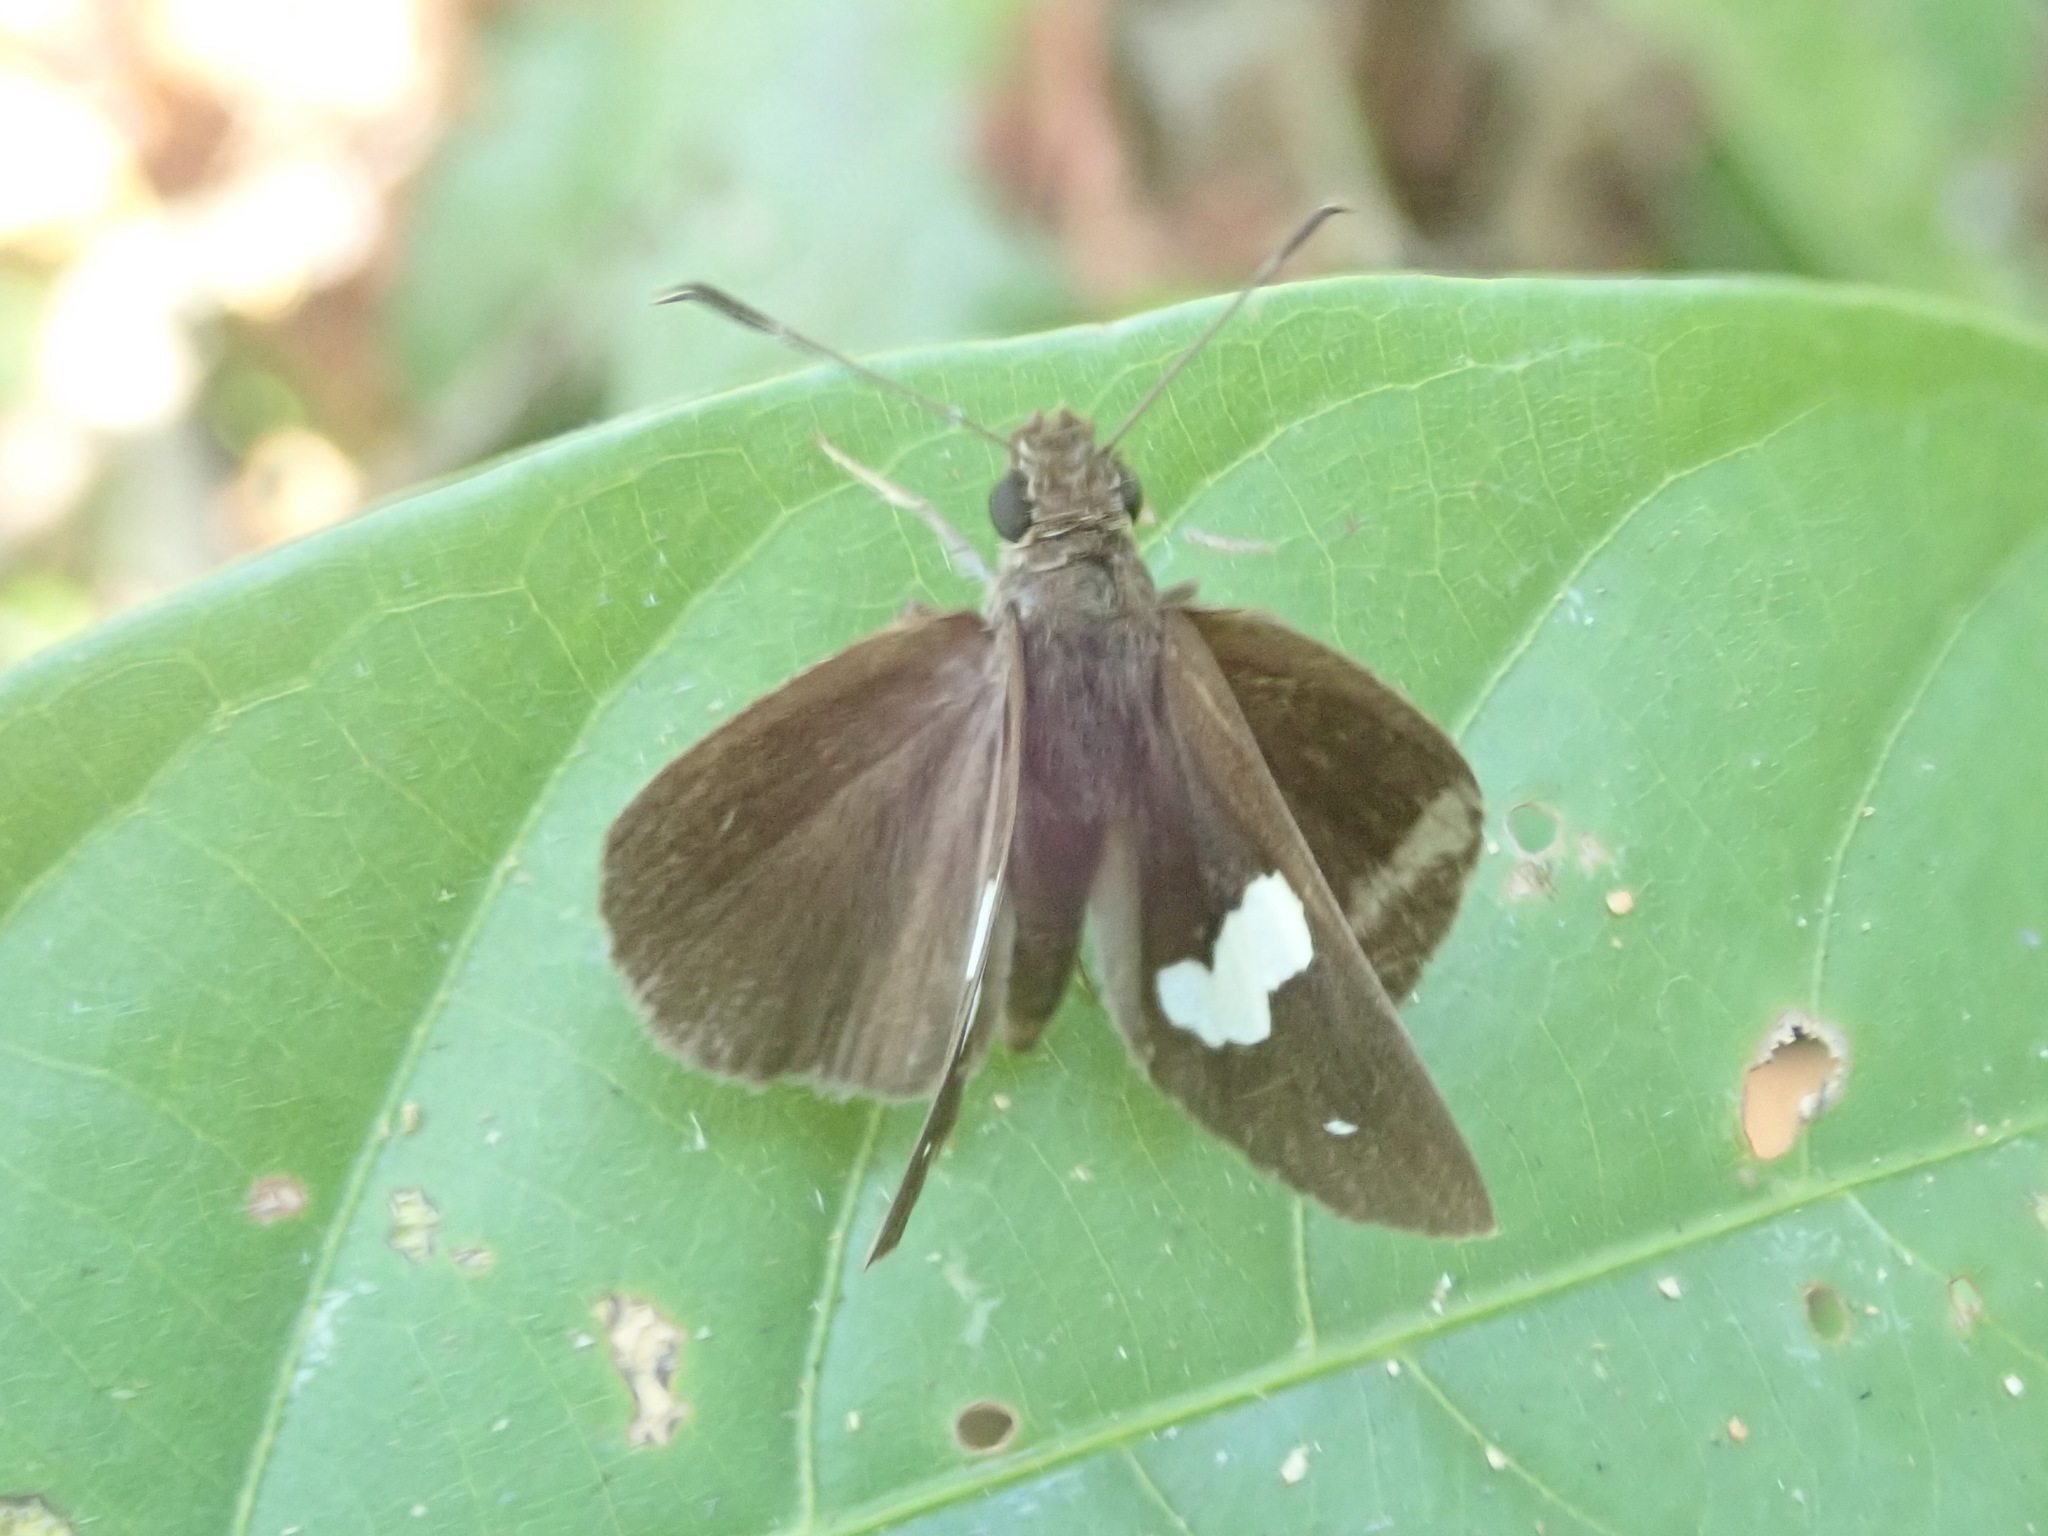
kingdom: Animalia
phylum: Arthropoda
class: Insecta
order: Lepidoptera
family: Hesperiidae
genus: Notocrypta
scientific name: Notocrypta paralysos
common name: Common banded demon
